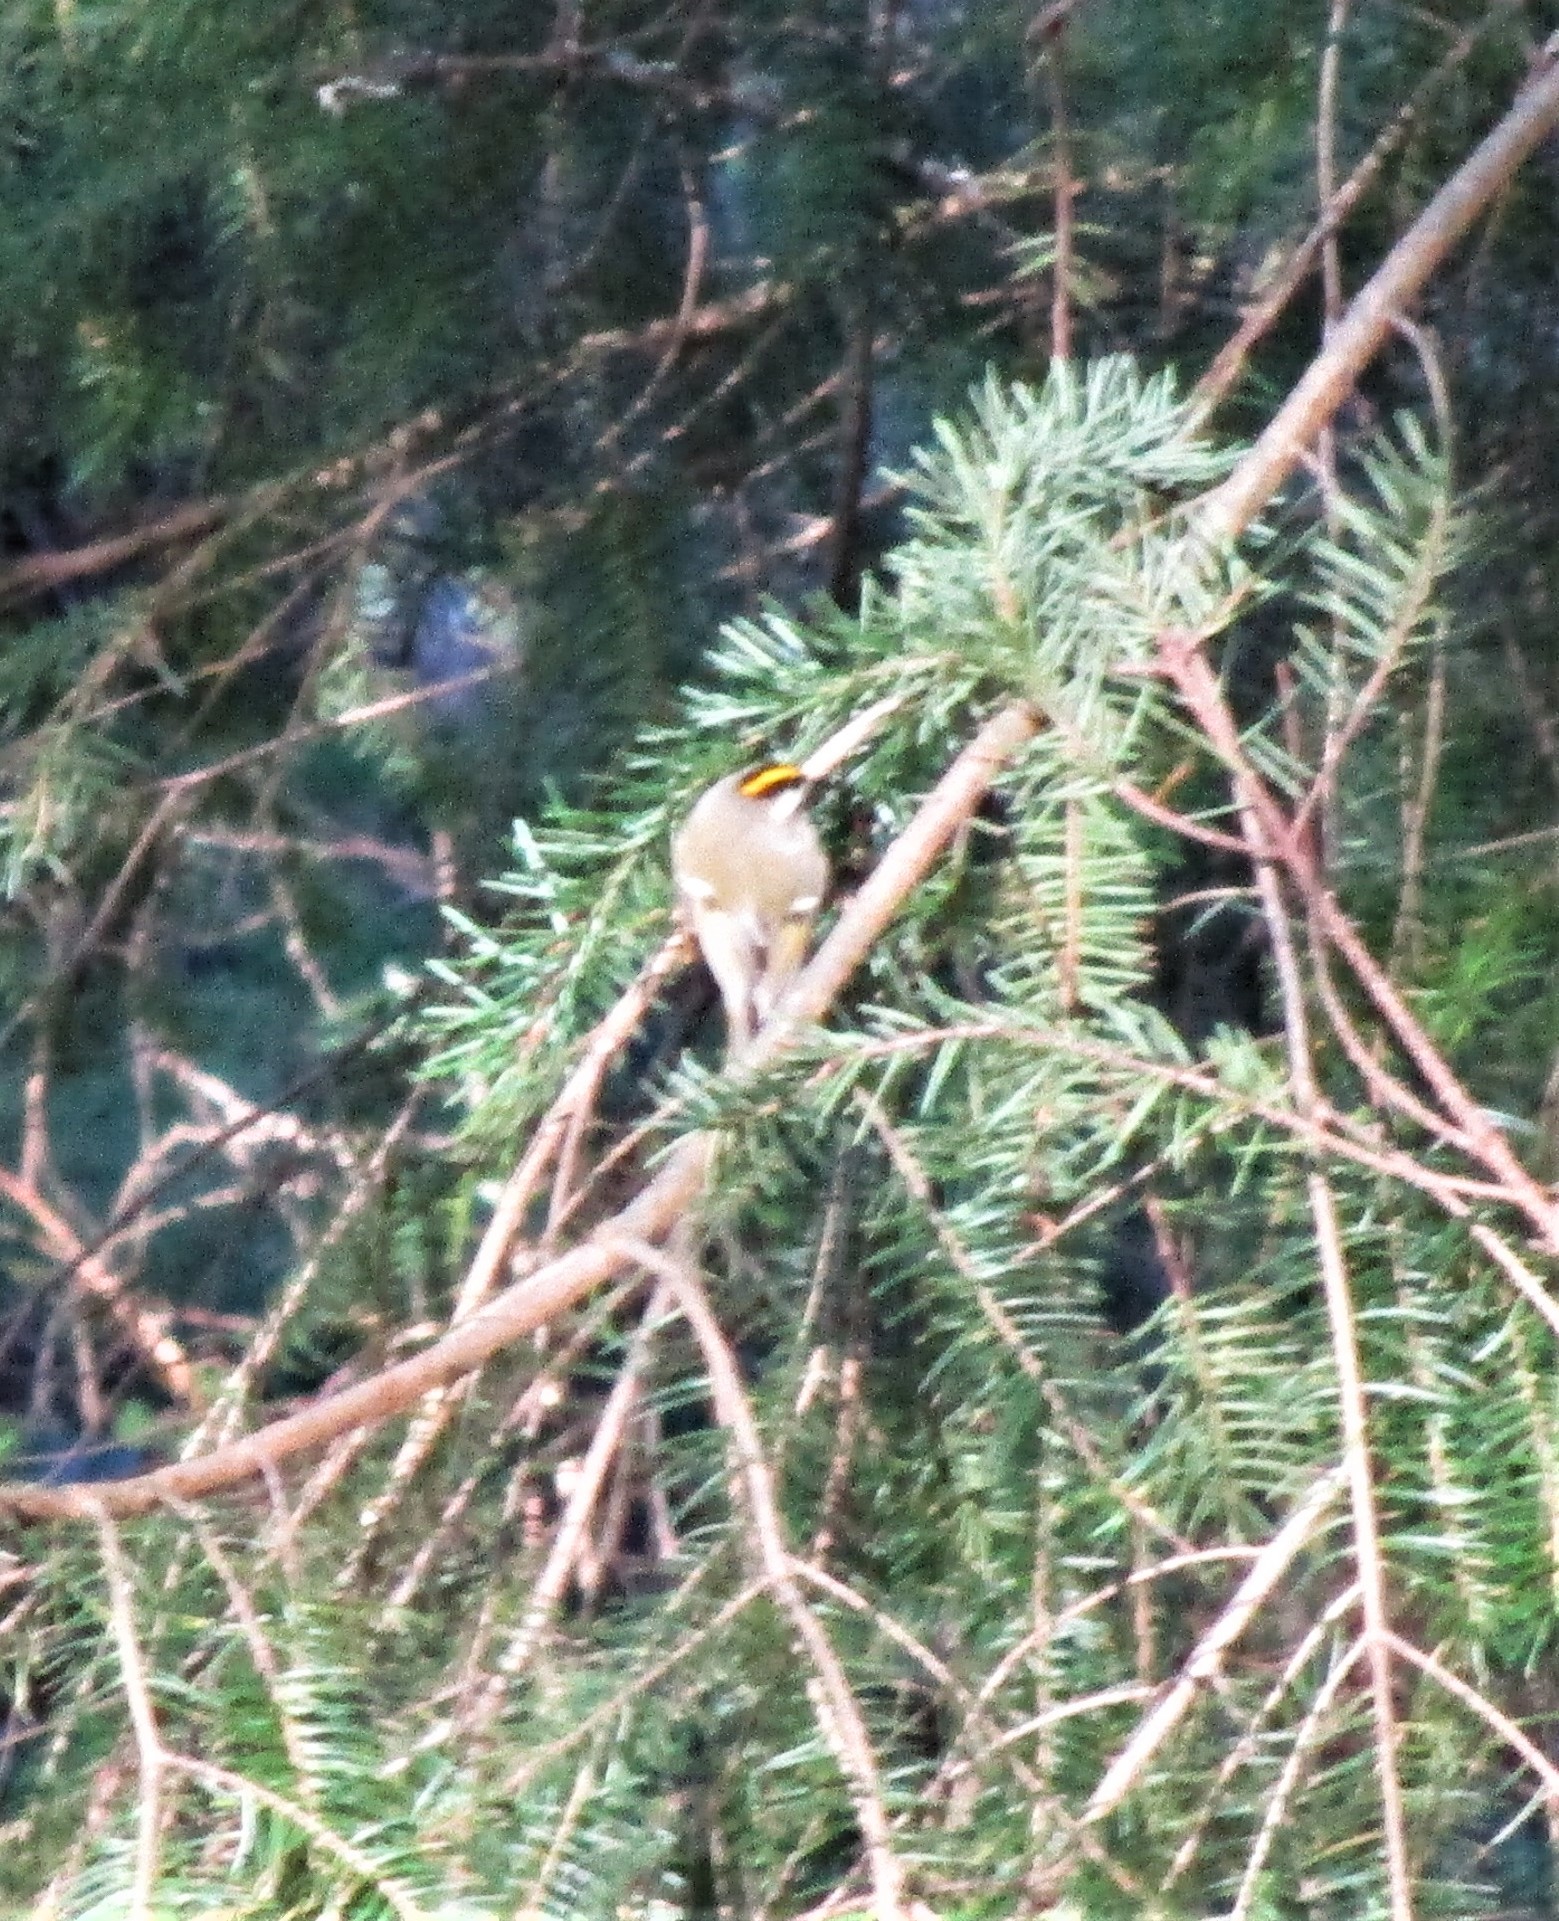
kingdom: Animalia
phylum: Chordata
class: Aves
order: Passeriformes
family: Regulidae
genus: Regulus
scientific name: Regulus satrapa
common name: Golden-crowned kinglet
